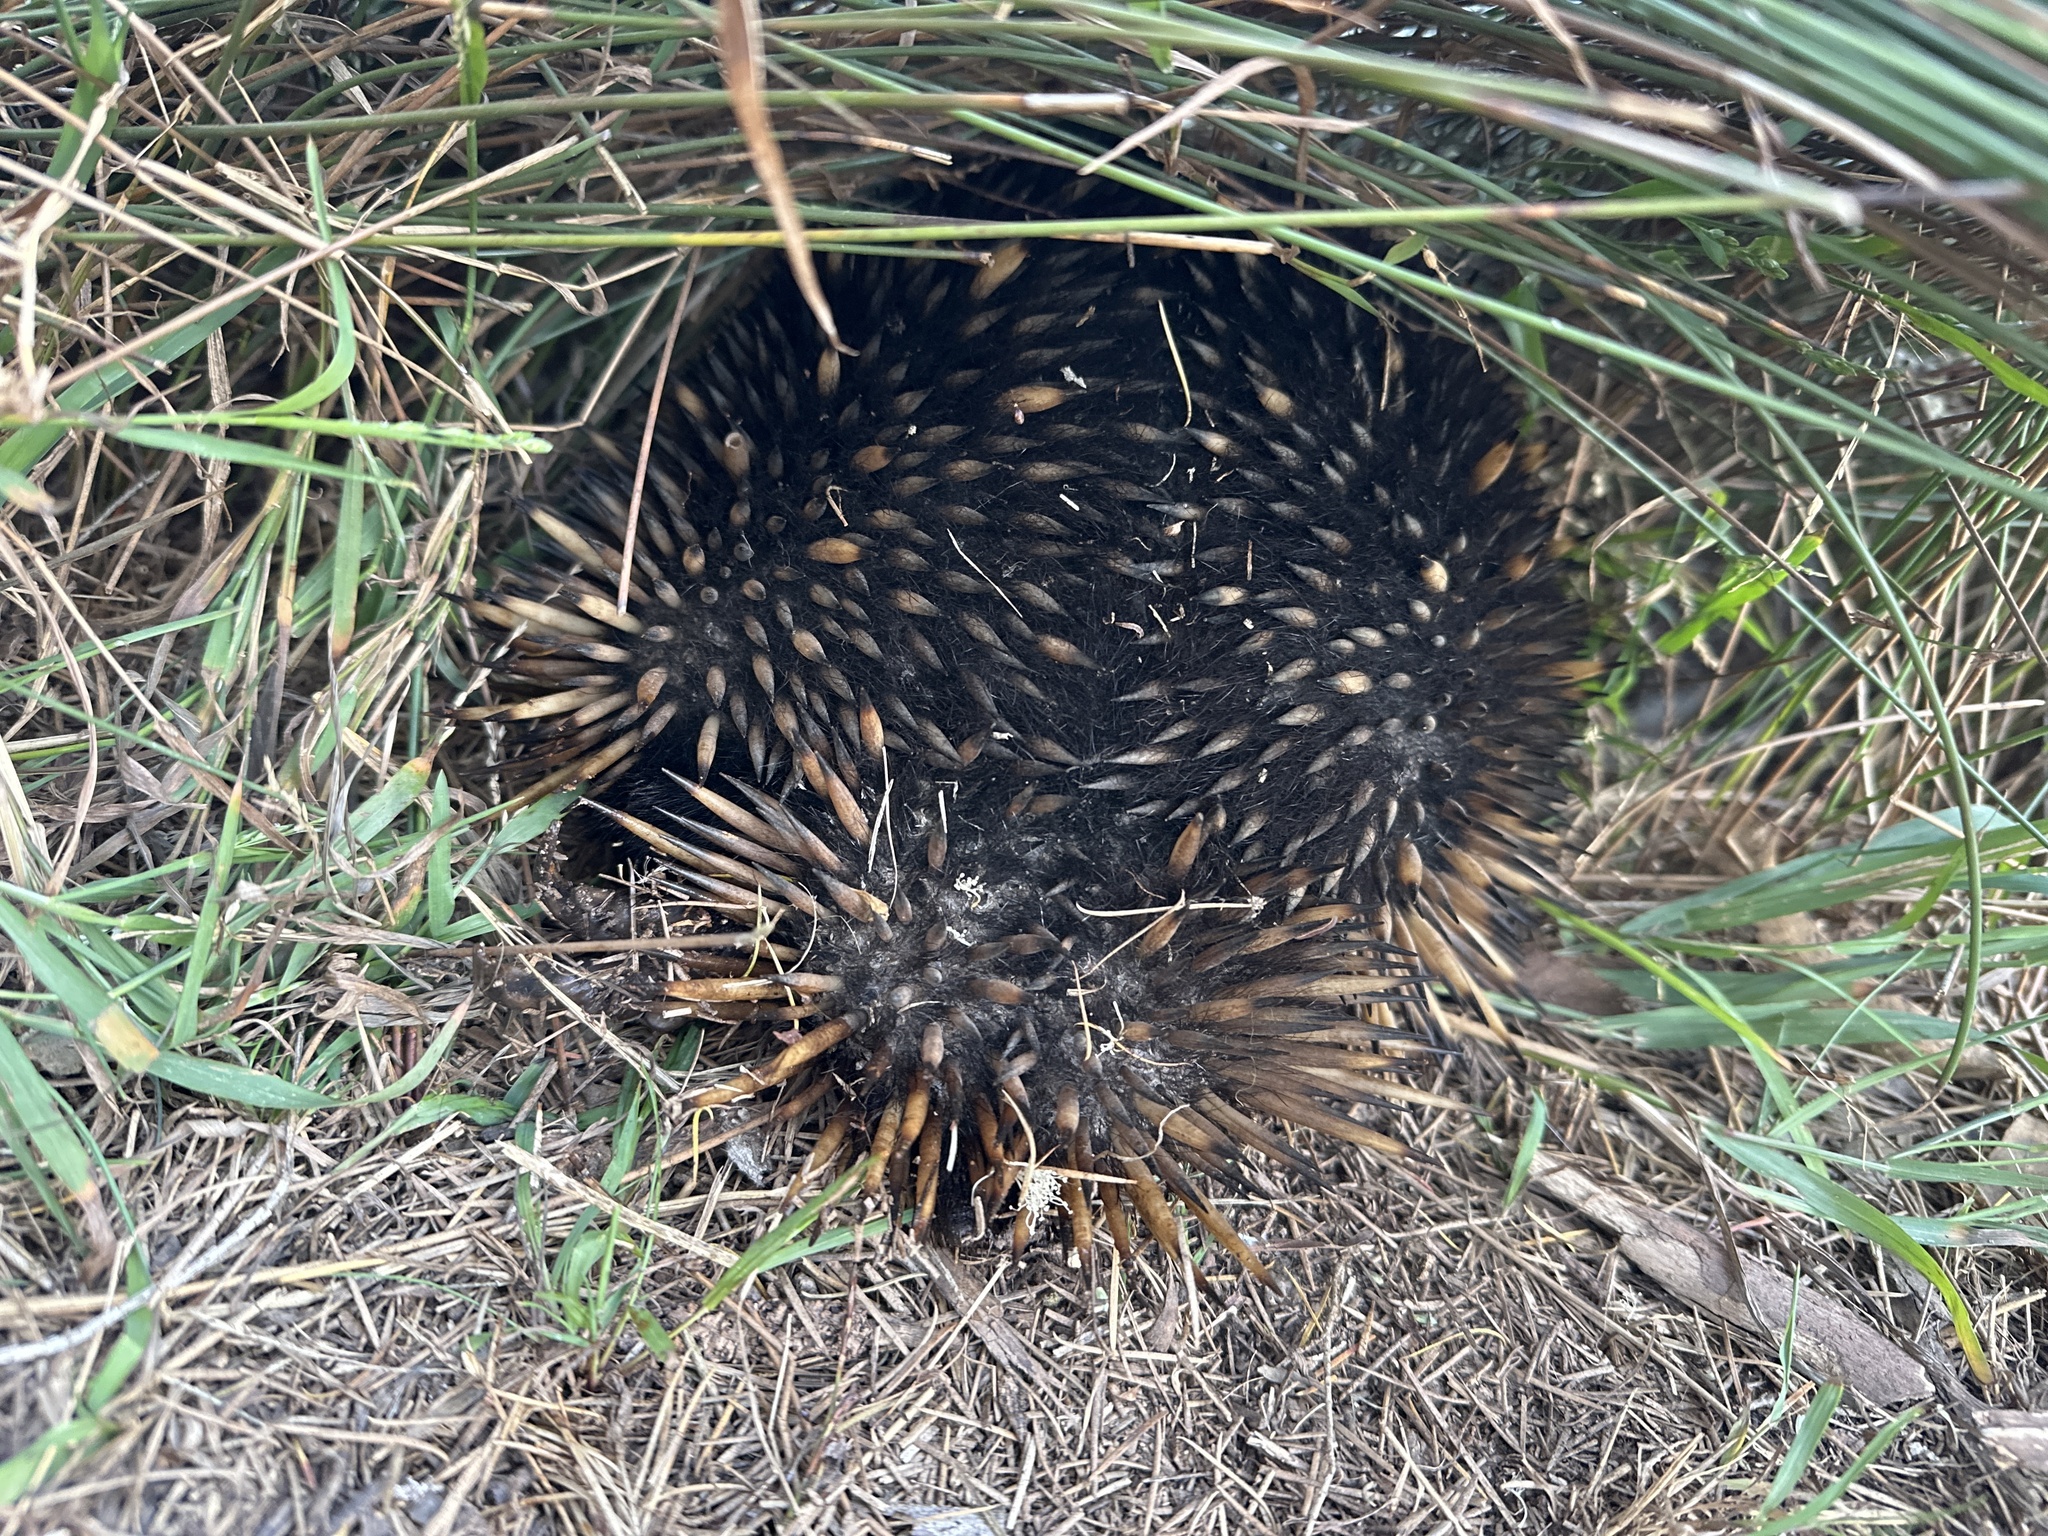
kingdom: Animalia
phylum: Chordata
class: Mammalia
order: Monotremata
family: Tachyglossidae
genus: Tachyglossus
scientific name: Tachyglossus aculeatus
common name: Short-beaked echidna
